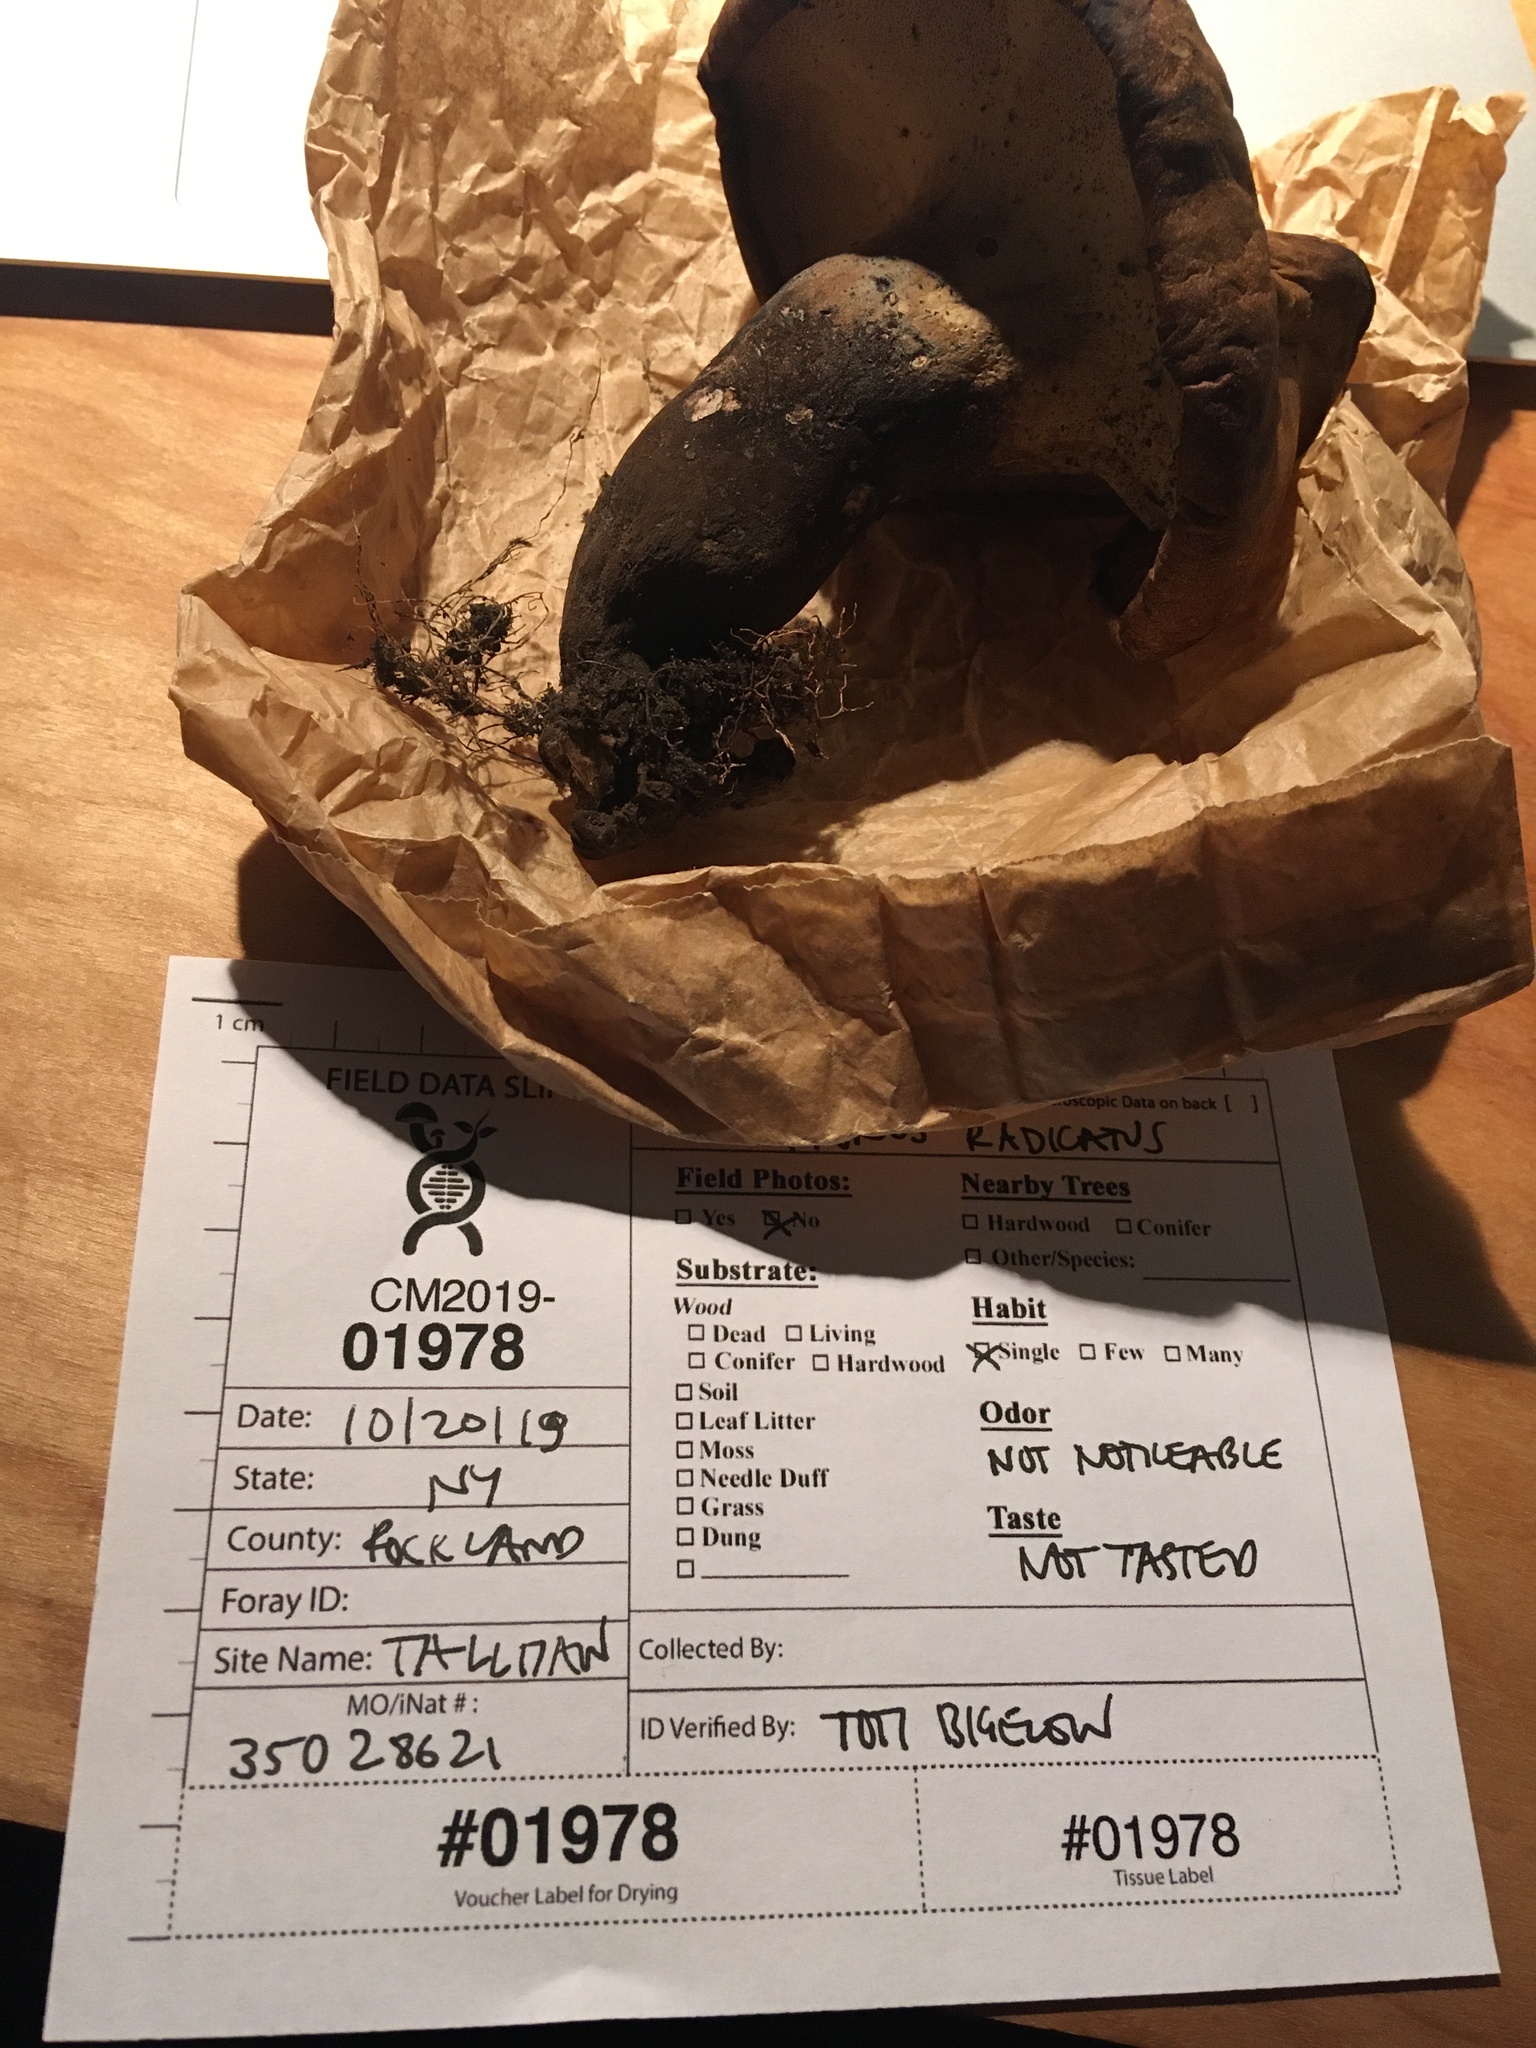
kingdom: Fungi
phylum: Basidiomycota
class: Agaricomycetes
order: Polyporales
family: Polyporaceae
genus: Polyporus
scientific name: Polyporus radicatus
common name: Rooting polypore
